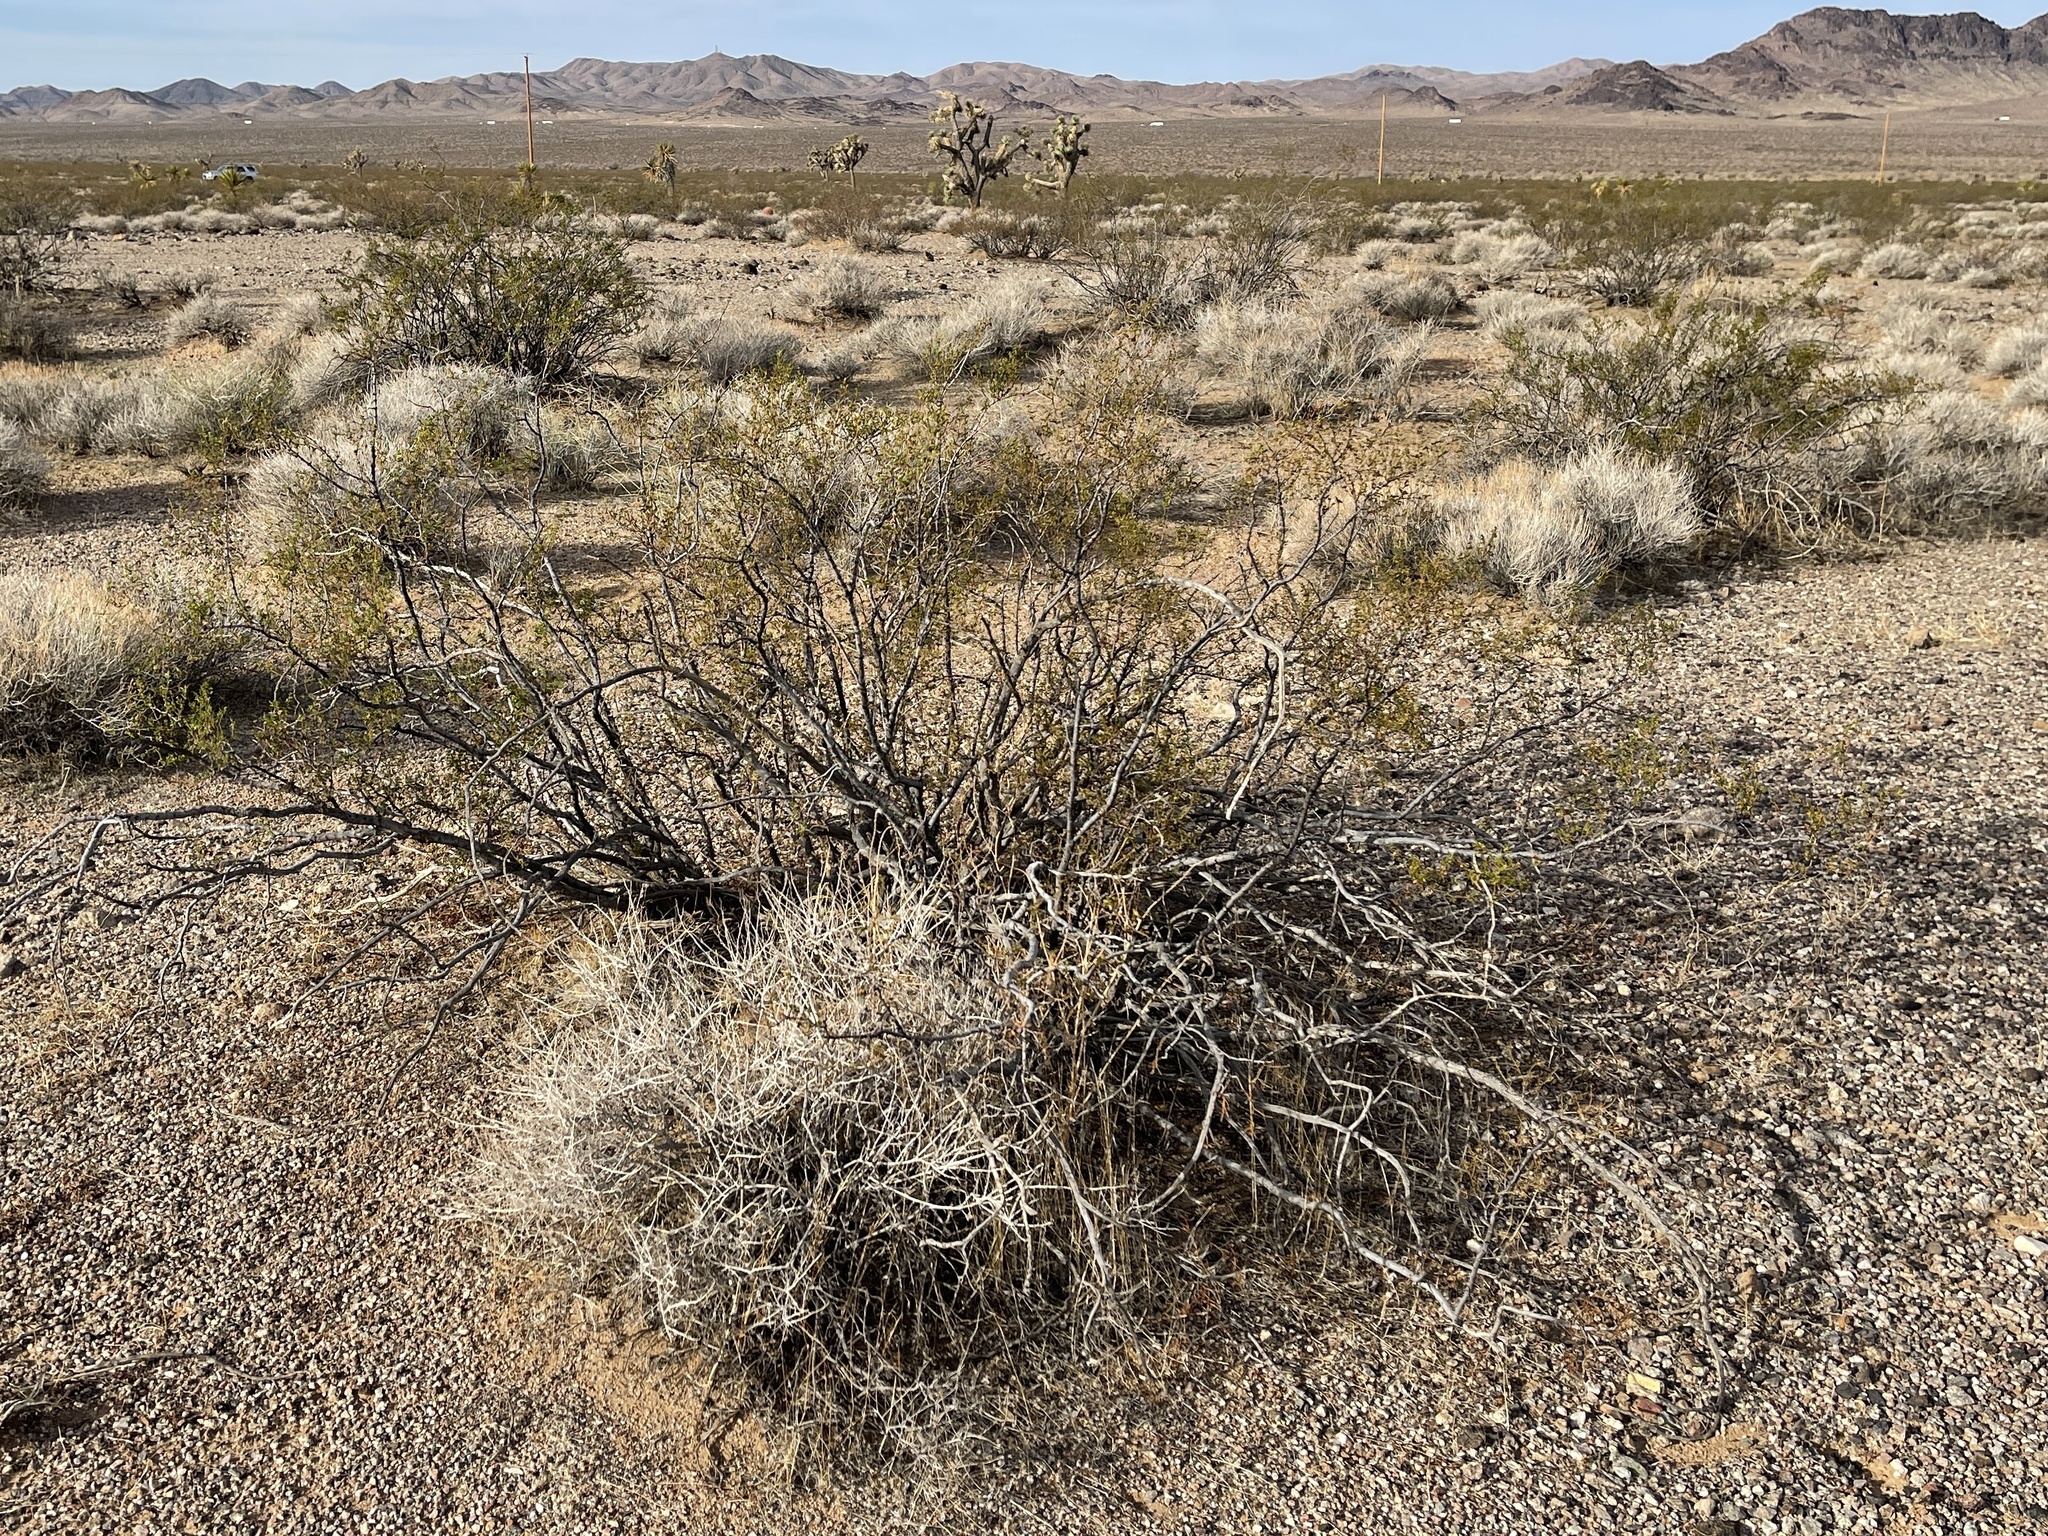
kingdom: Plantae
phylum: Tracheophyta
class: Magnoliopsida
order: Zygophyllales
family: Zygophyllaceae
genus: Larrea
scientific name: Larrea tridentata
